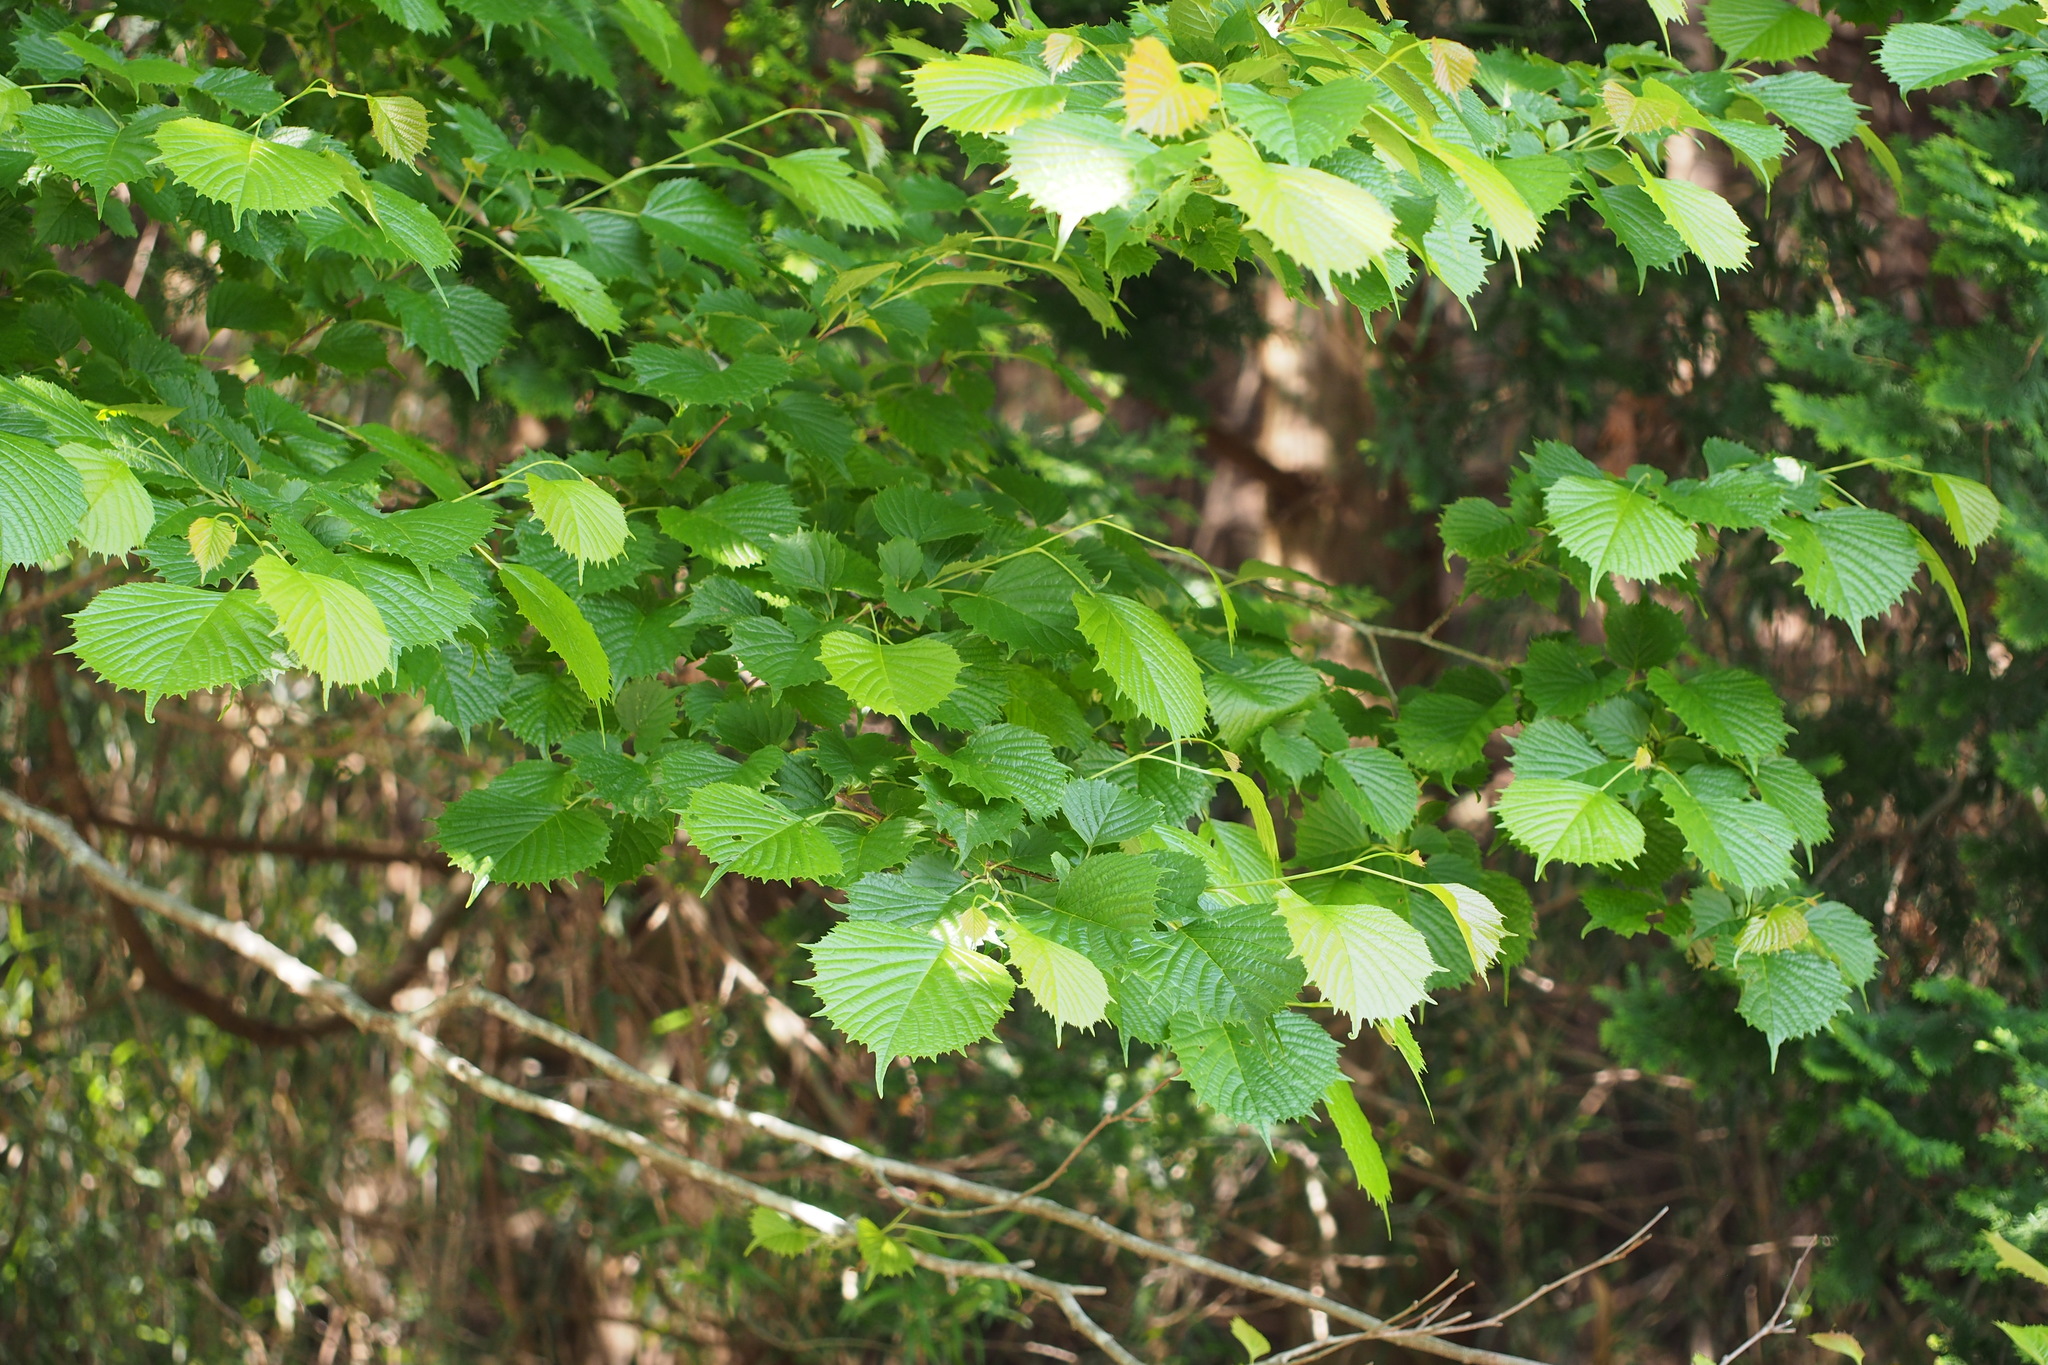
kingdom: Plantae
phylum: Tracheophyta
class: Magnoliopsida
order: Ranunculales
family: Eupteleaceae
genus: Euptelea
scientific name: Euptelea polyandra
